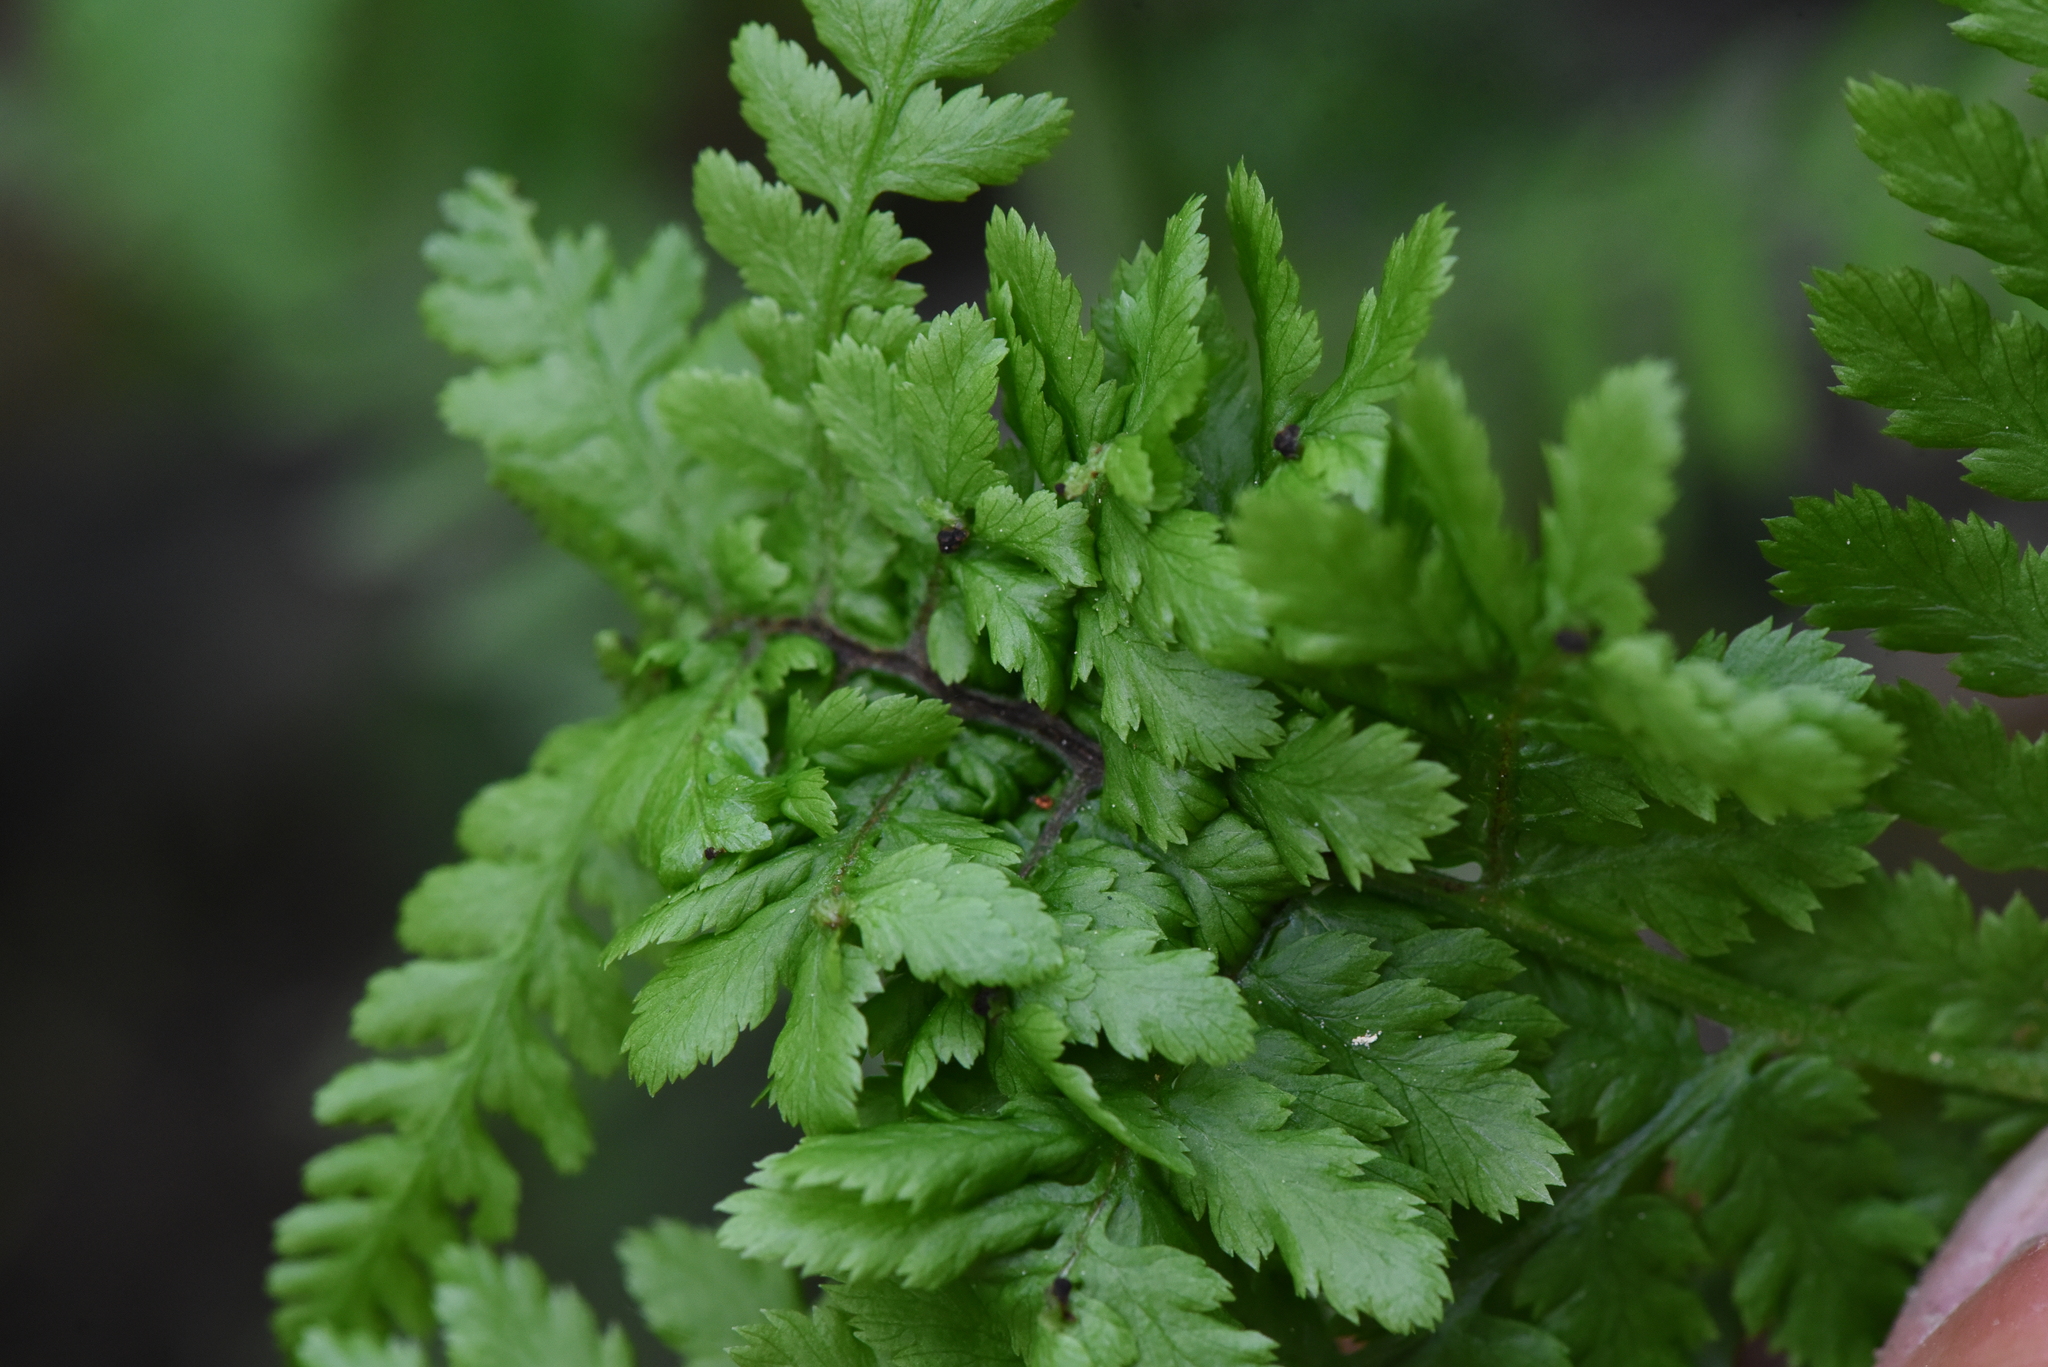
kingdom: Animalia
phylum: Arthropoda
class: Insecta
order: Diptera
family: Anthomyiidae
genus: Chirosia
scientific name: Chirosia betuleti
